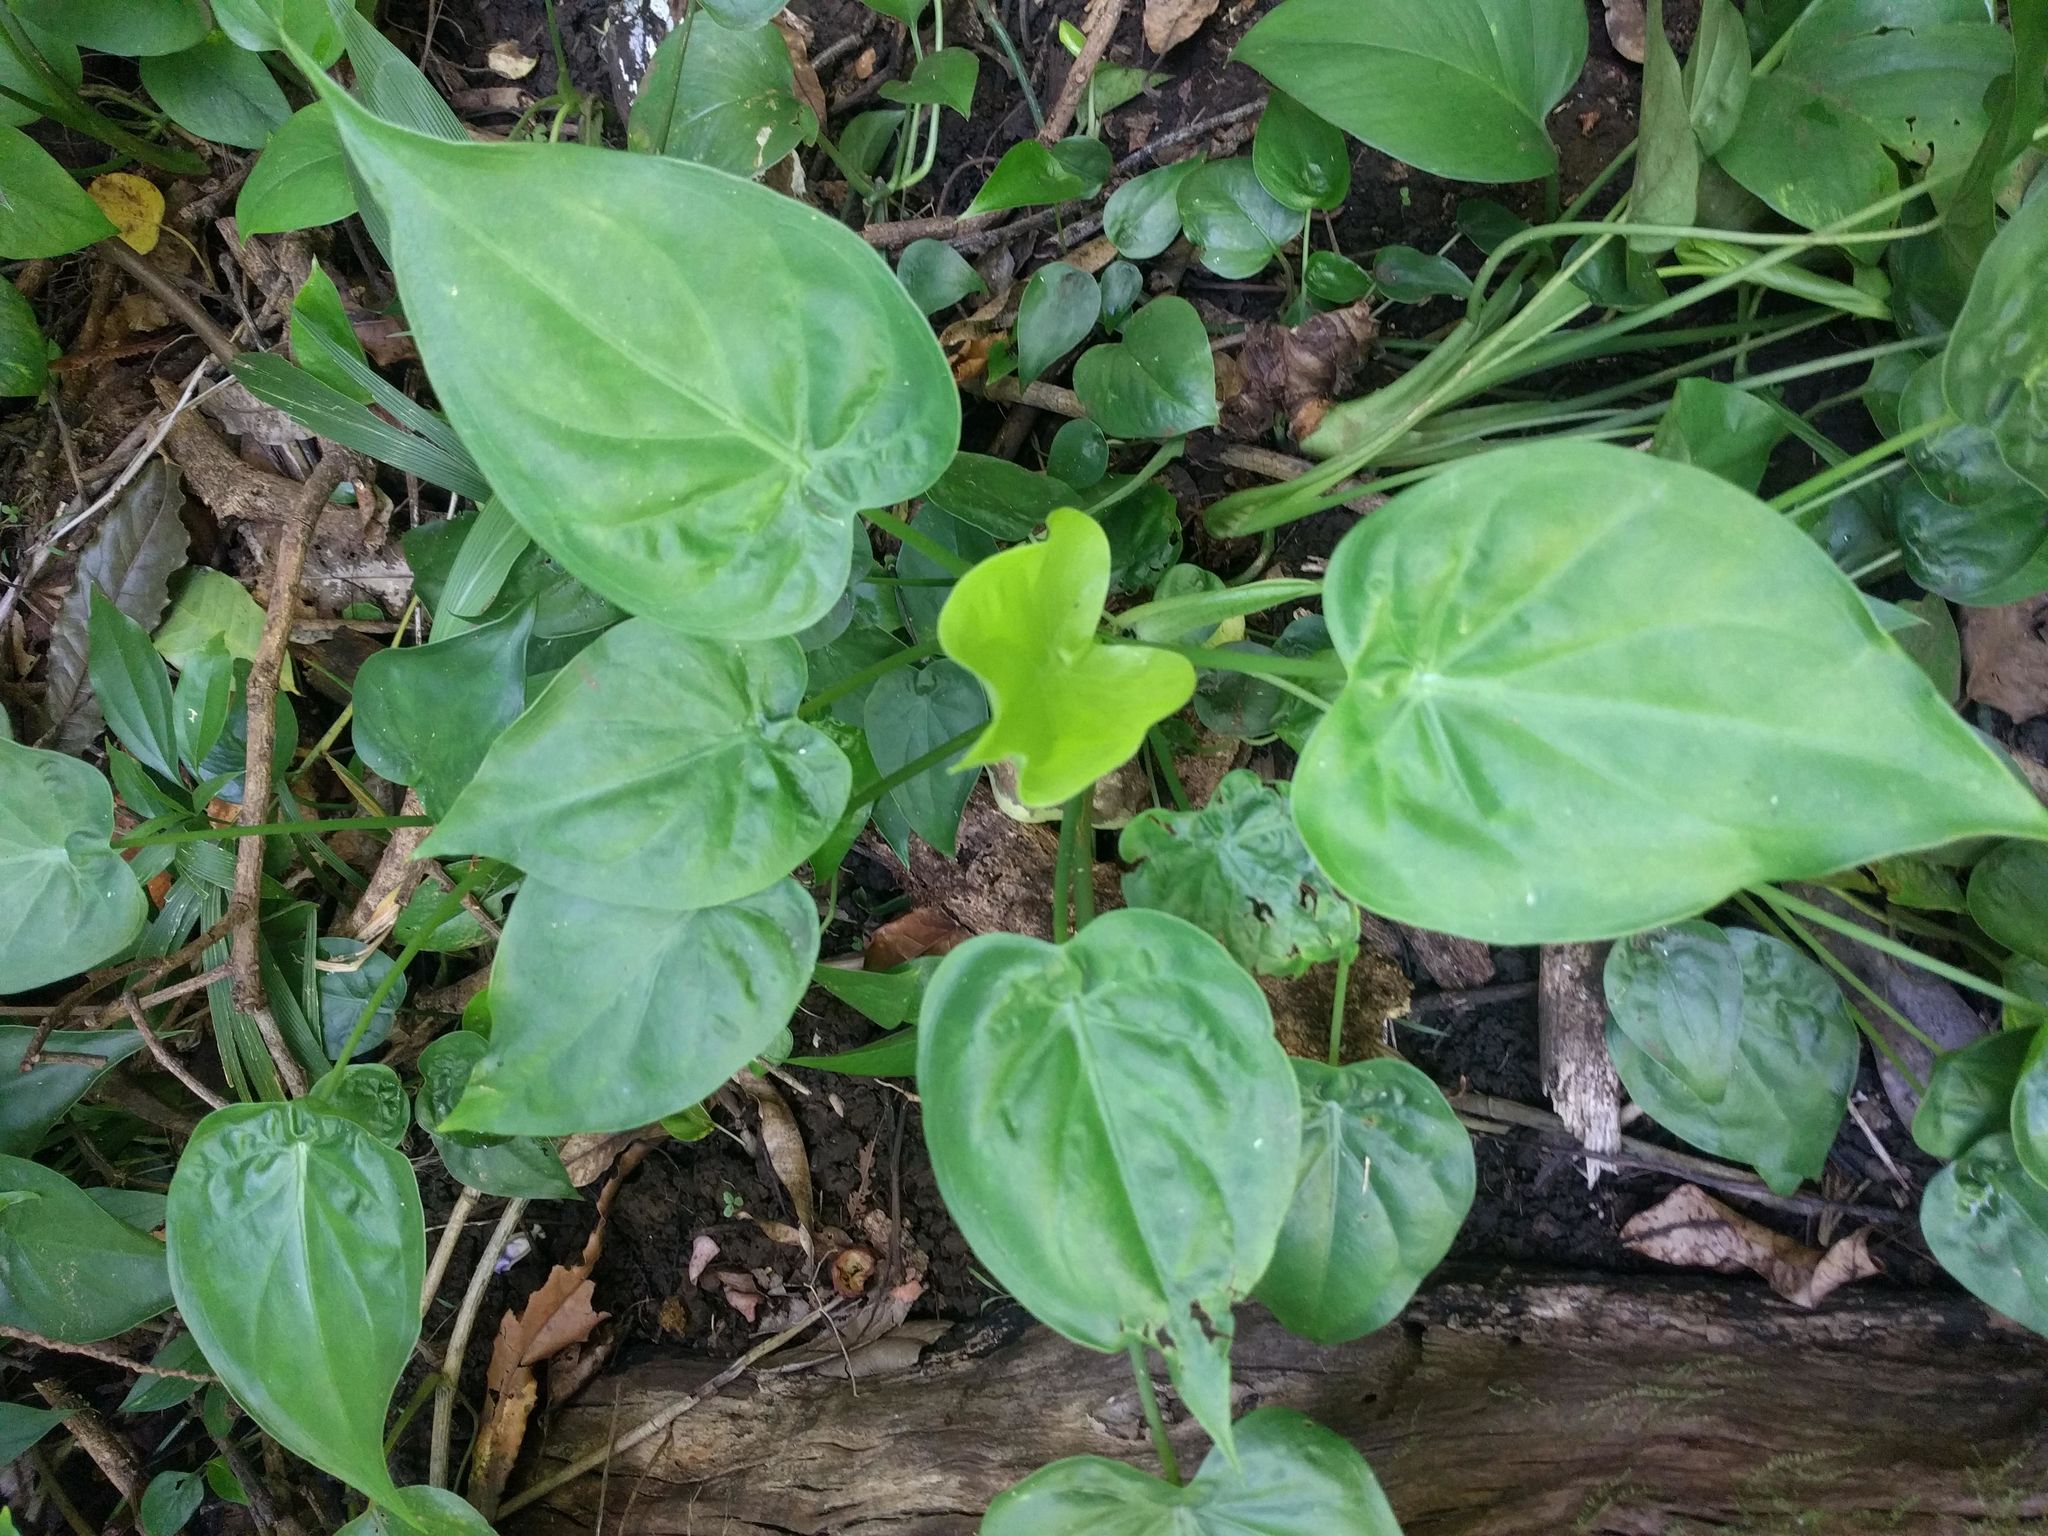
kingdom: Plantae
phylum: Tracheophyta
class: Liliopsida
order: Alismatales
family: Araceae
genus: Alocasia
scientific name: Alocasia cucullata
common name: Buddha's hand
